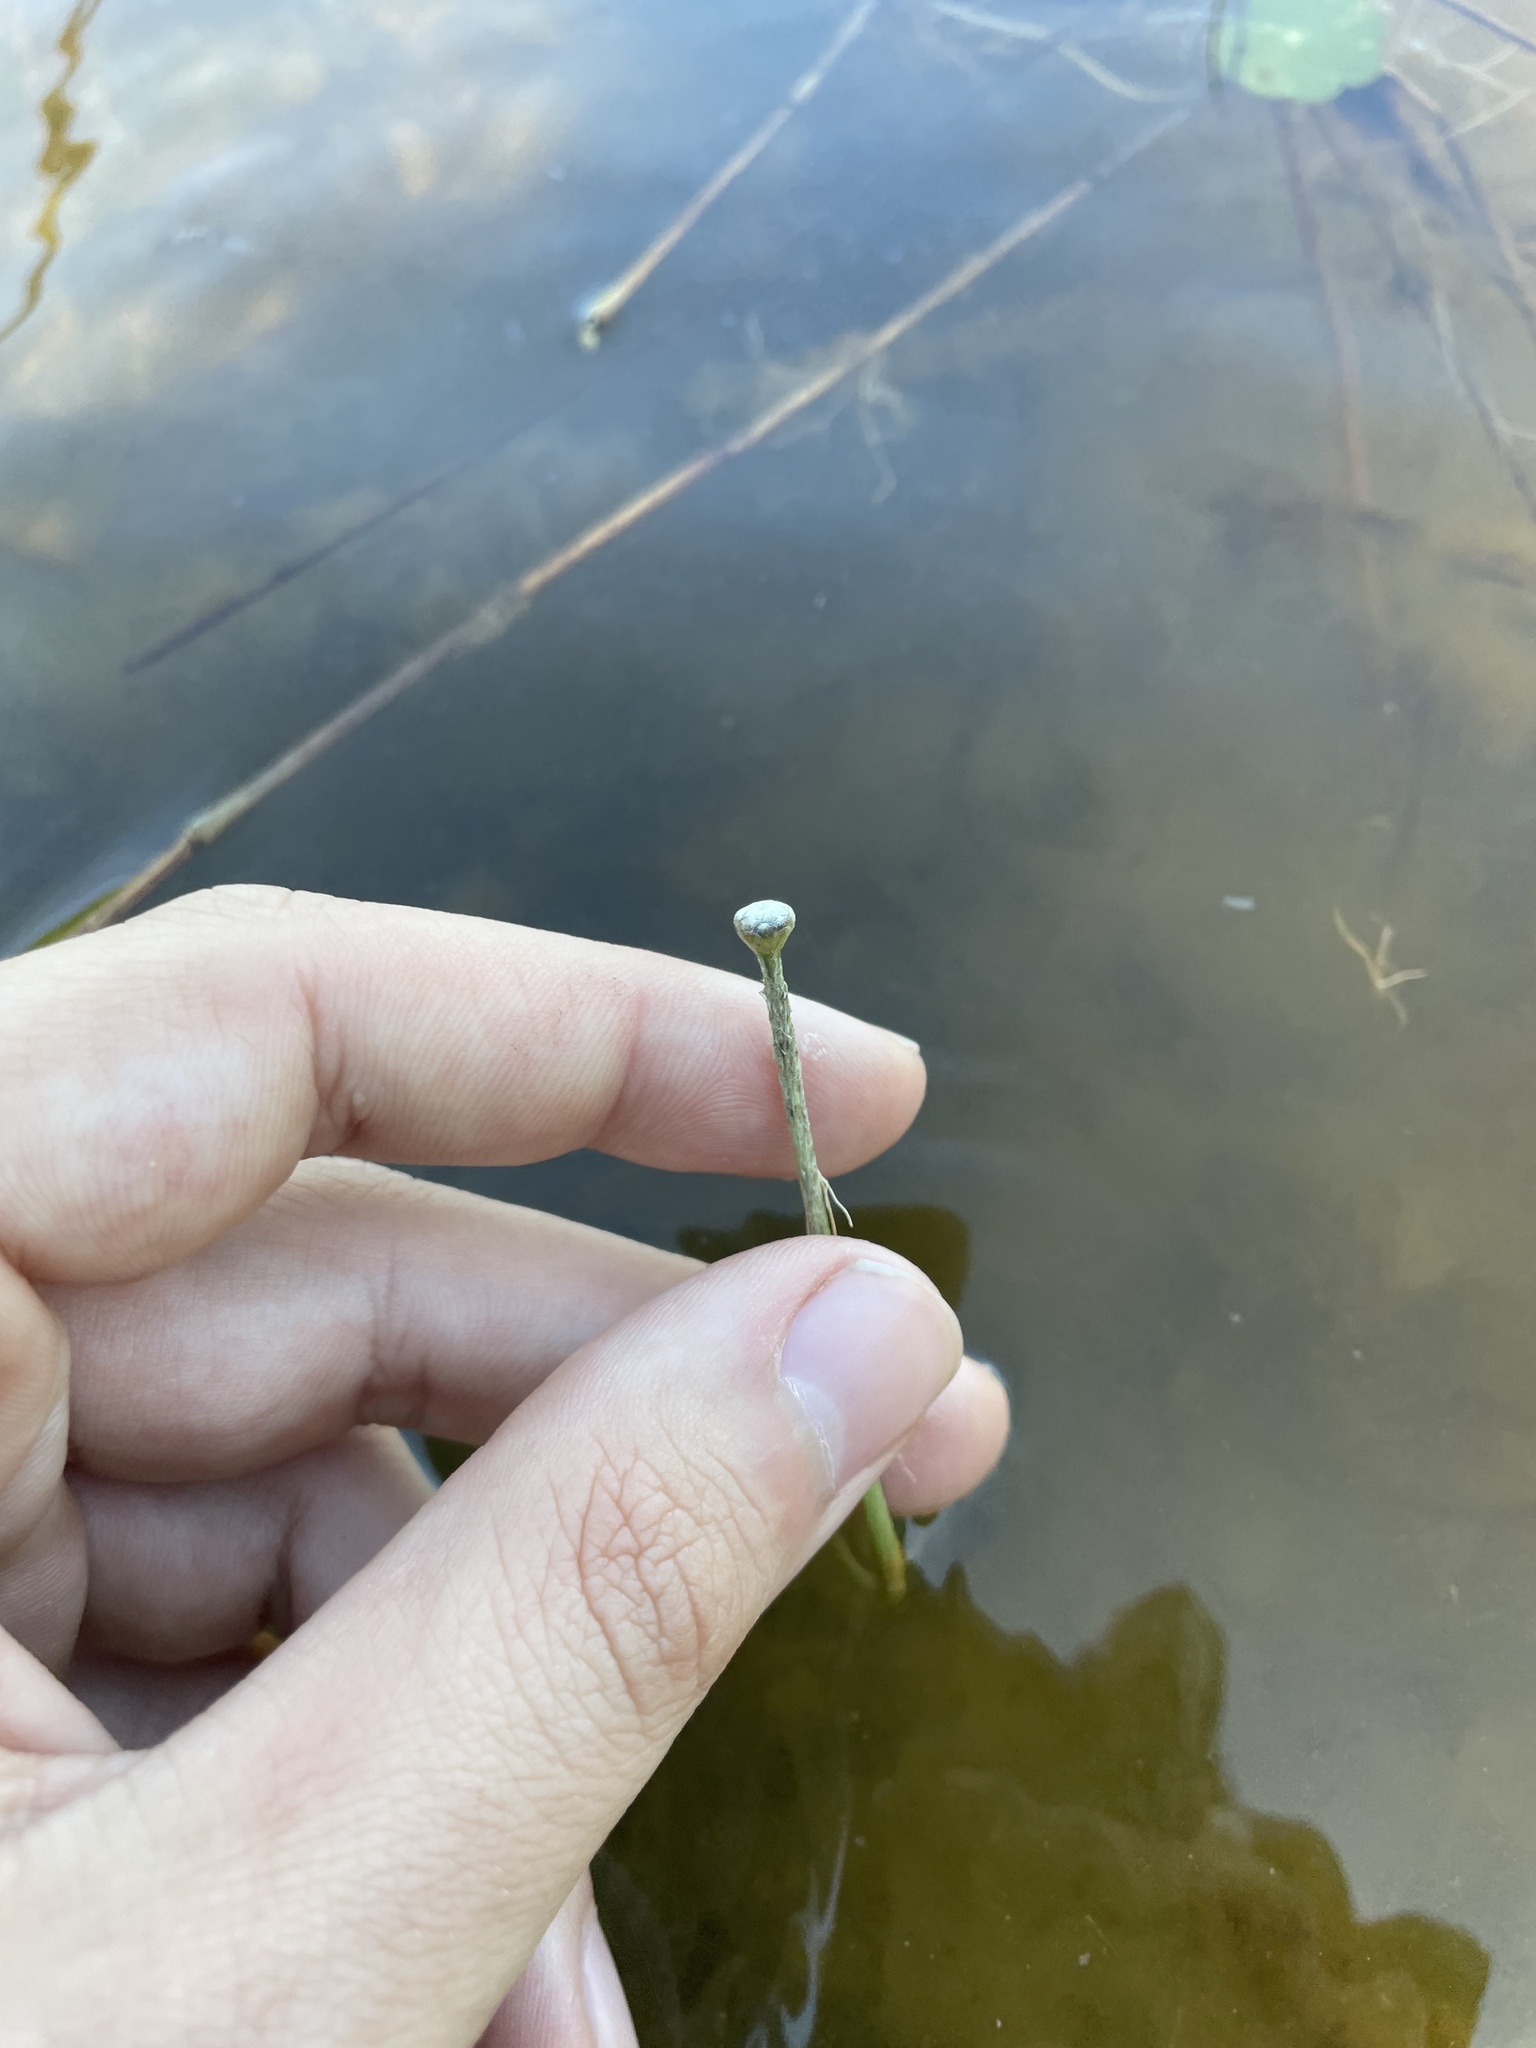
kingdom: Plantae
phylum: Tracheophyta
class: Liliopsida
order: Poales
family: Eriocaulaceae
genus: Eriocaulon
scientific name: Eriocaulon aquaticum
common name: Pipewort
